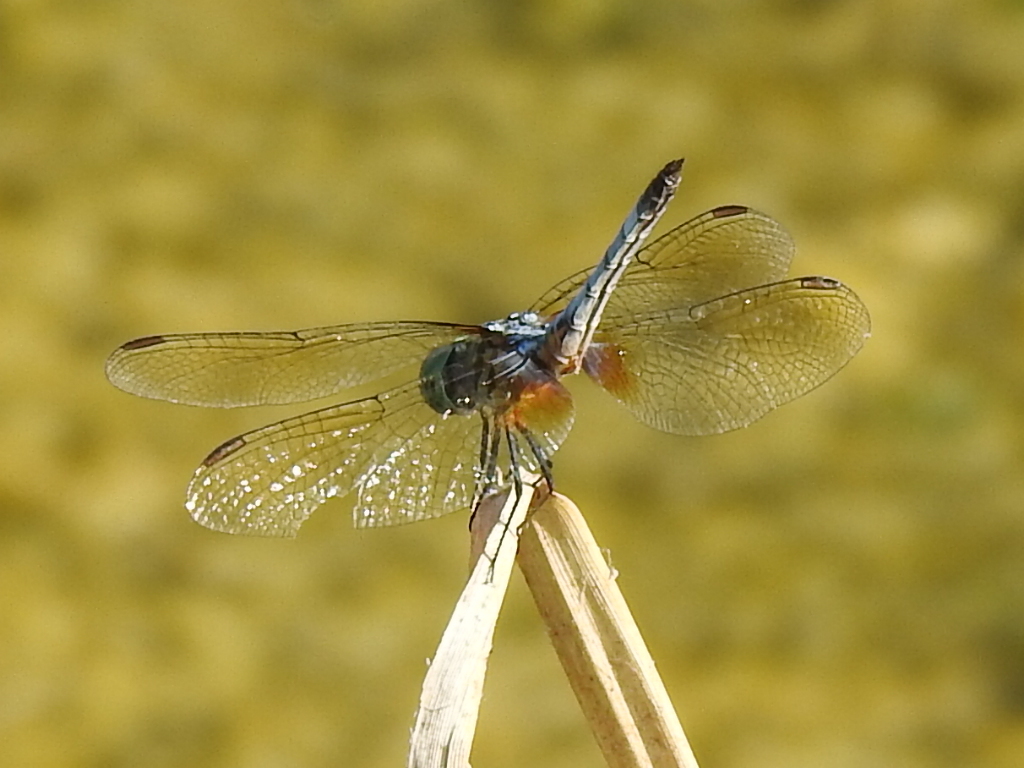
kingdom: Animalia
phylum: Arthropoda
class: Insecta
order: Odonata
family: Libellulidae
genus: Pachydiplax
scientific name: Pachydiplax longipennis
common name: Blue dasher
